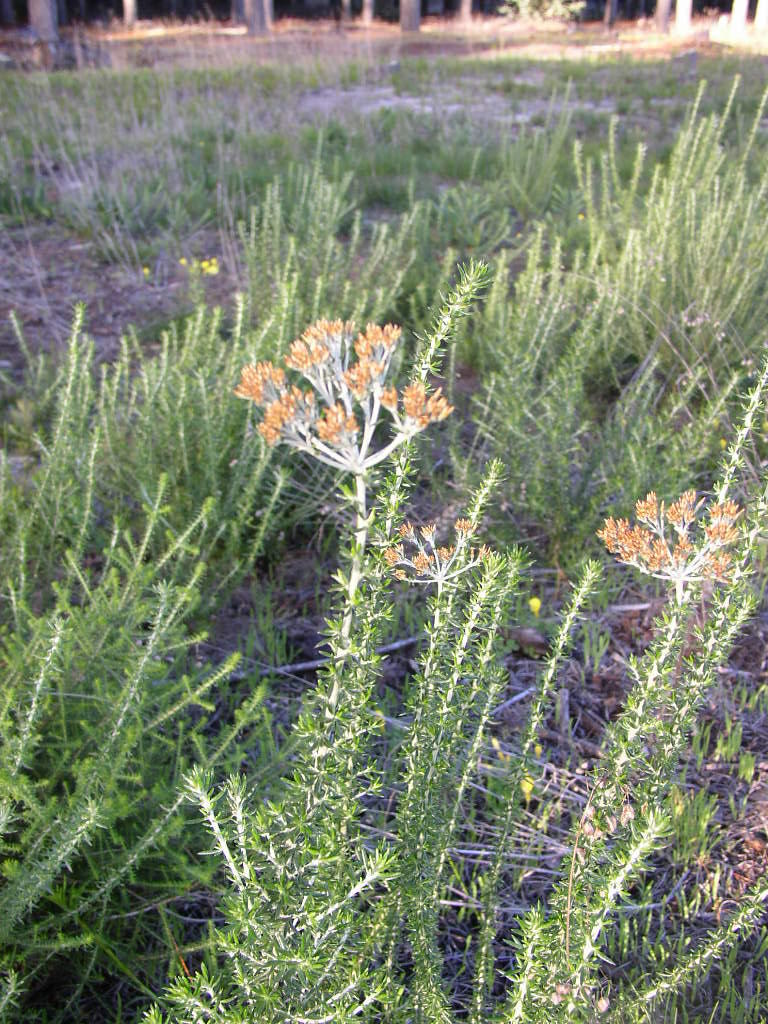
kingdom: Plantae
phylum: Tracheophyta
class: Magnoliopsida
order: Asterales
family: Asteraceae
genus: Metalasia
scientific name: Metalasia densa
